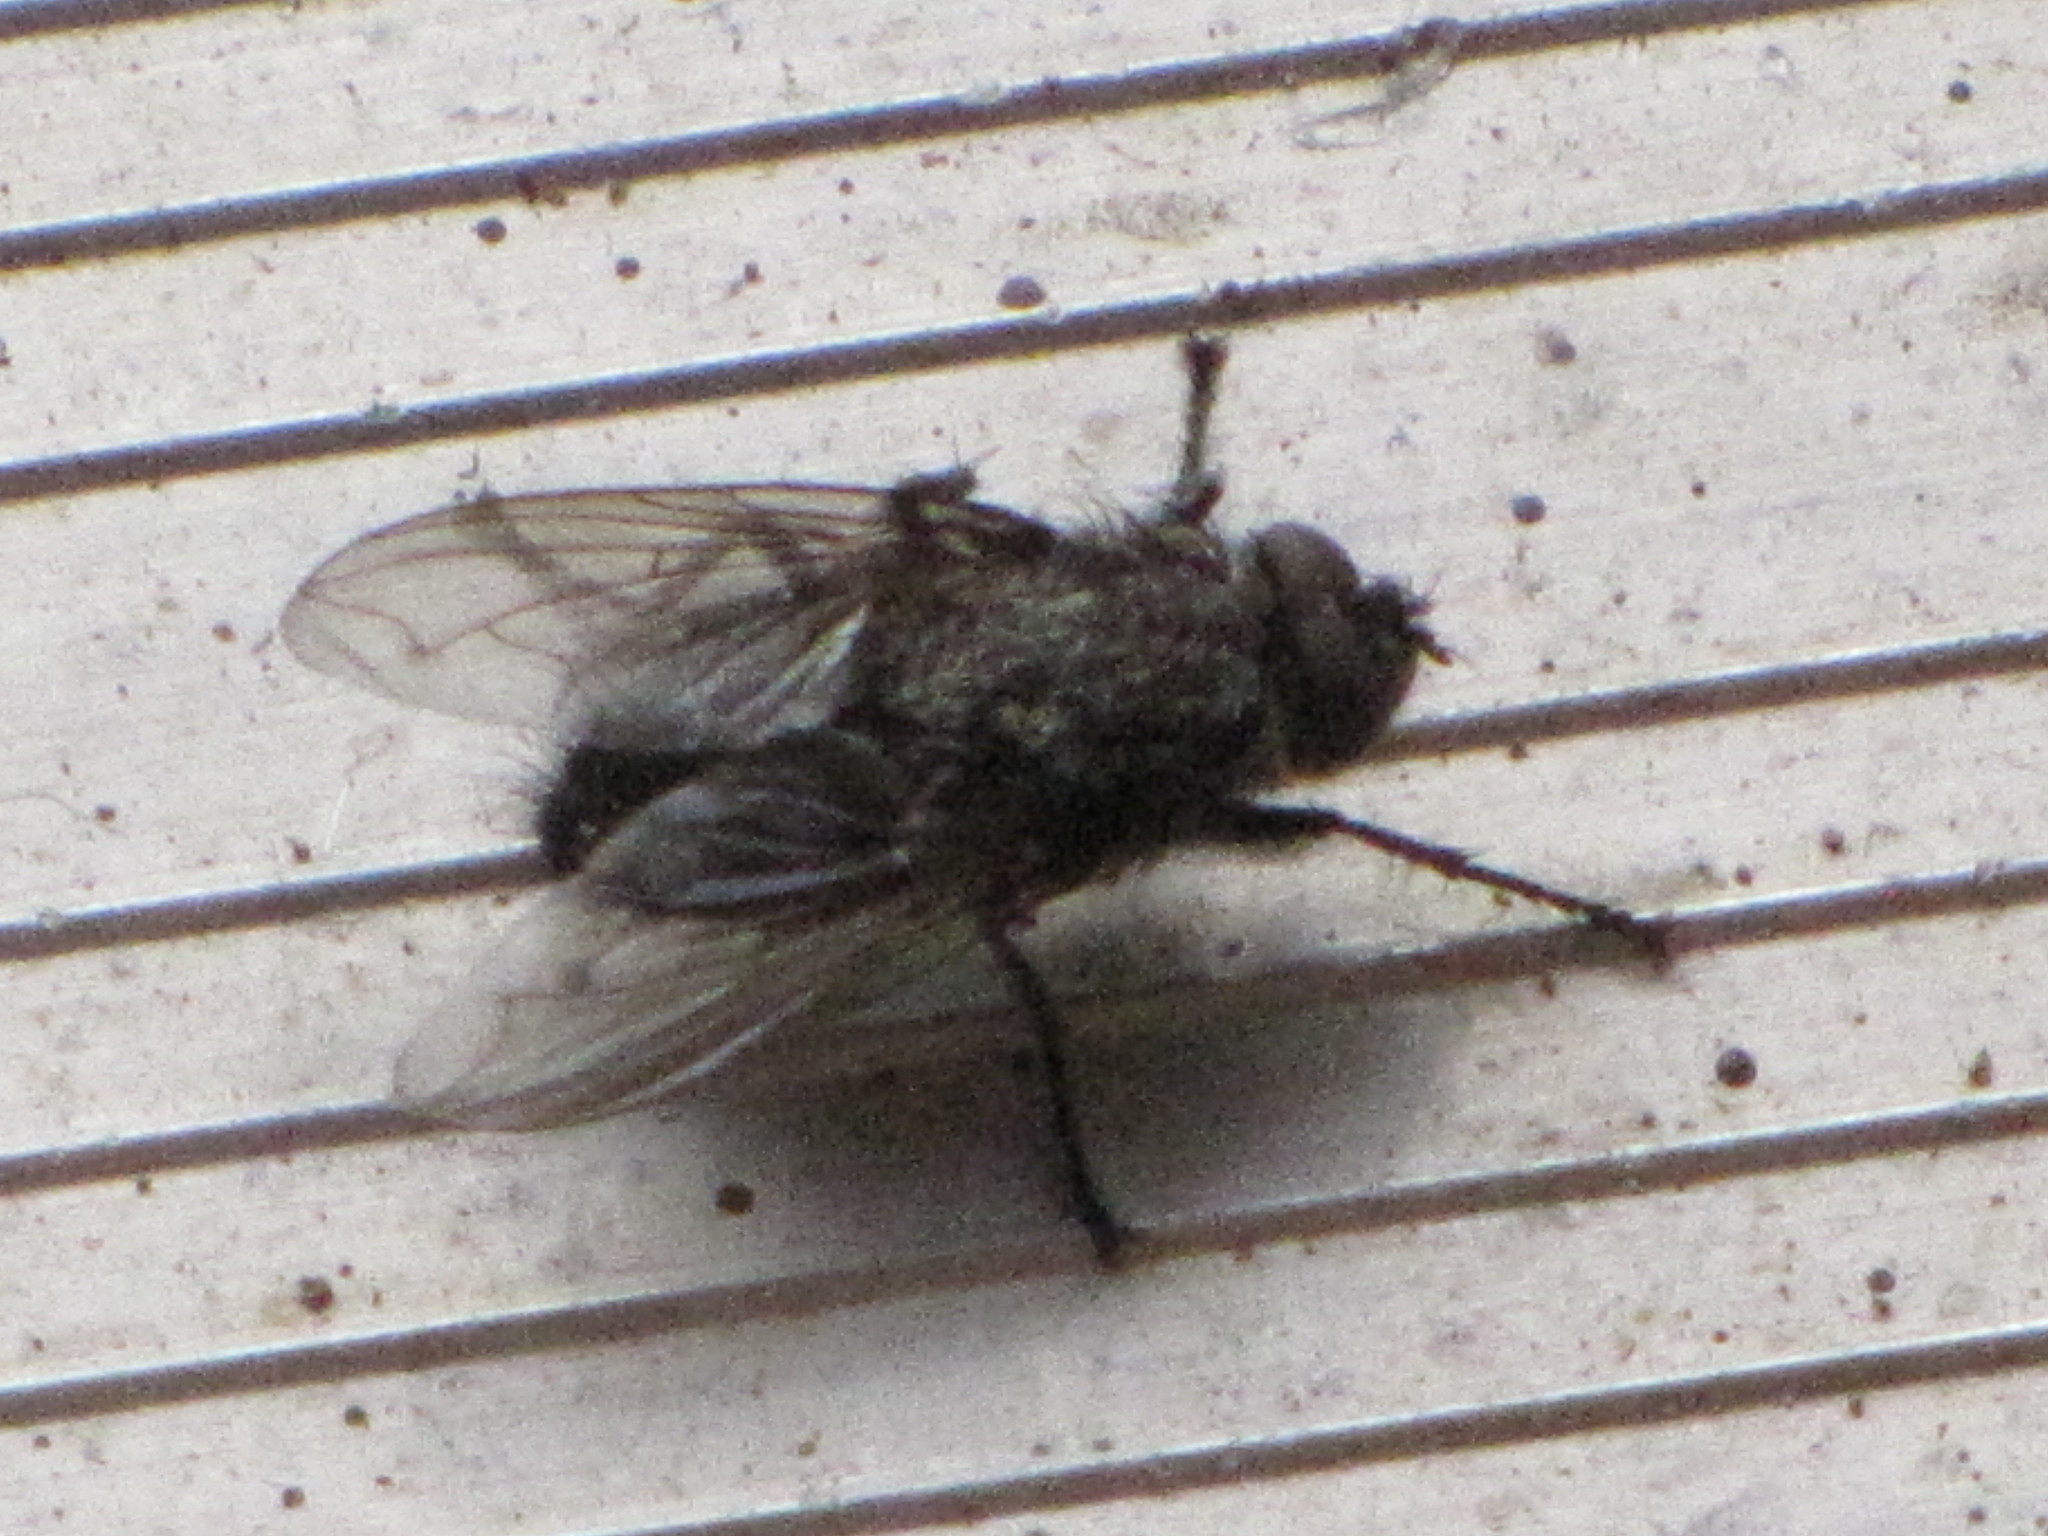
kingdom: Animalia
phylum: Arthropoda
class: Insecta
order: Diptera
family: Polleniidae
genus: Pollenia
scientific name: Pollenia
